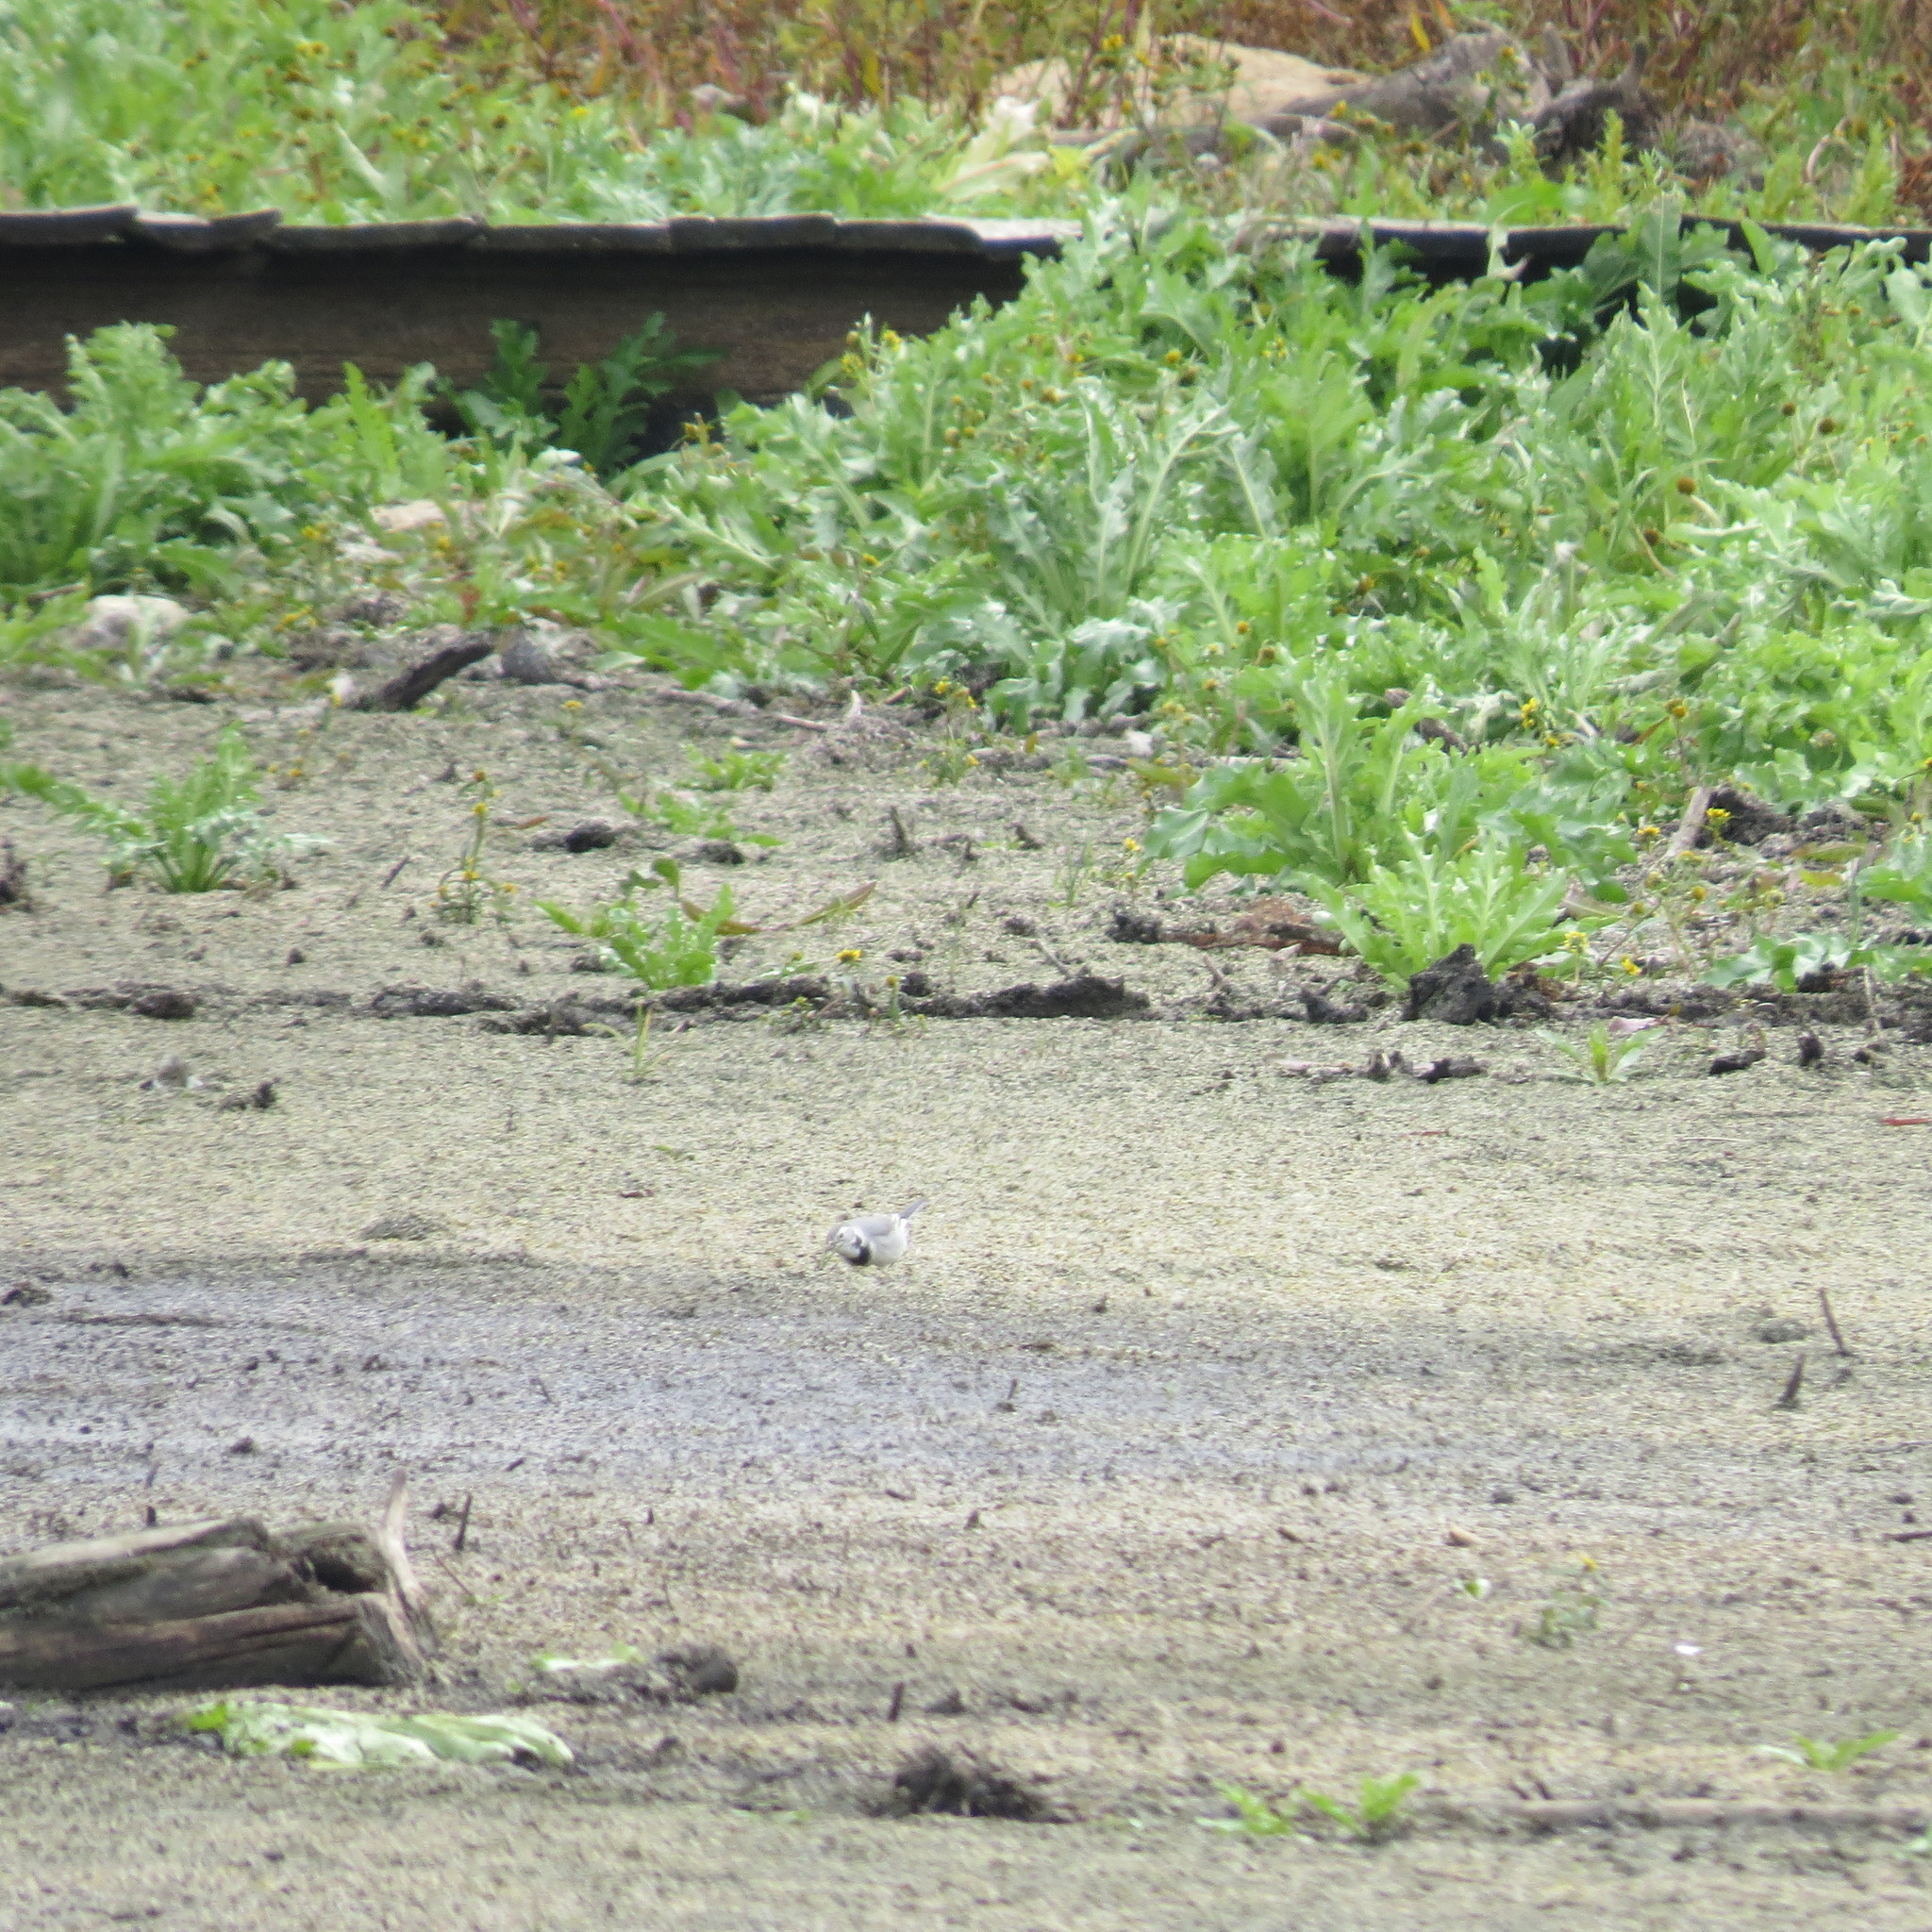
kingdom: Animalia
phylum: Chordata
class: Aves
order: Passeriformes
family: Motacillidae
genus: Motacilla
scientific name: Motacilla alba
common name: White wagtail
